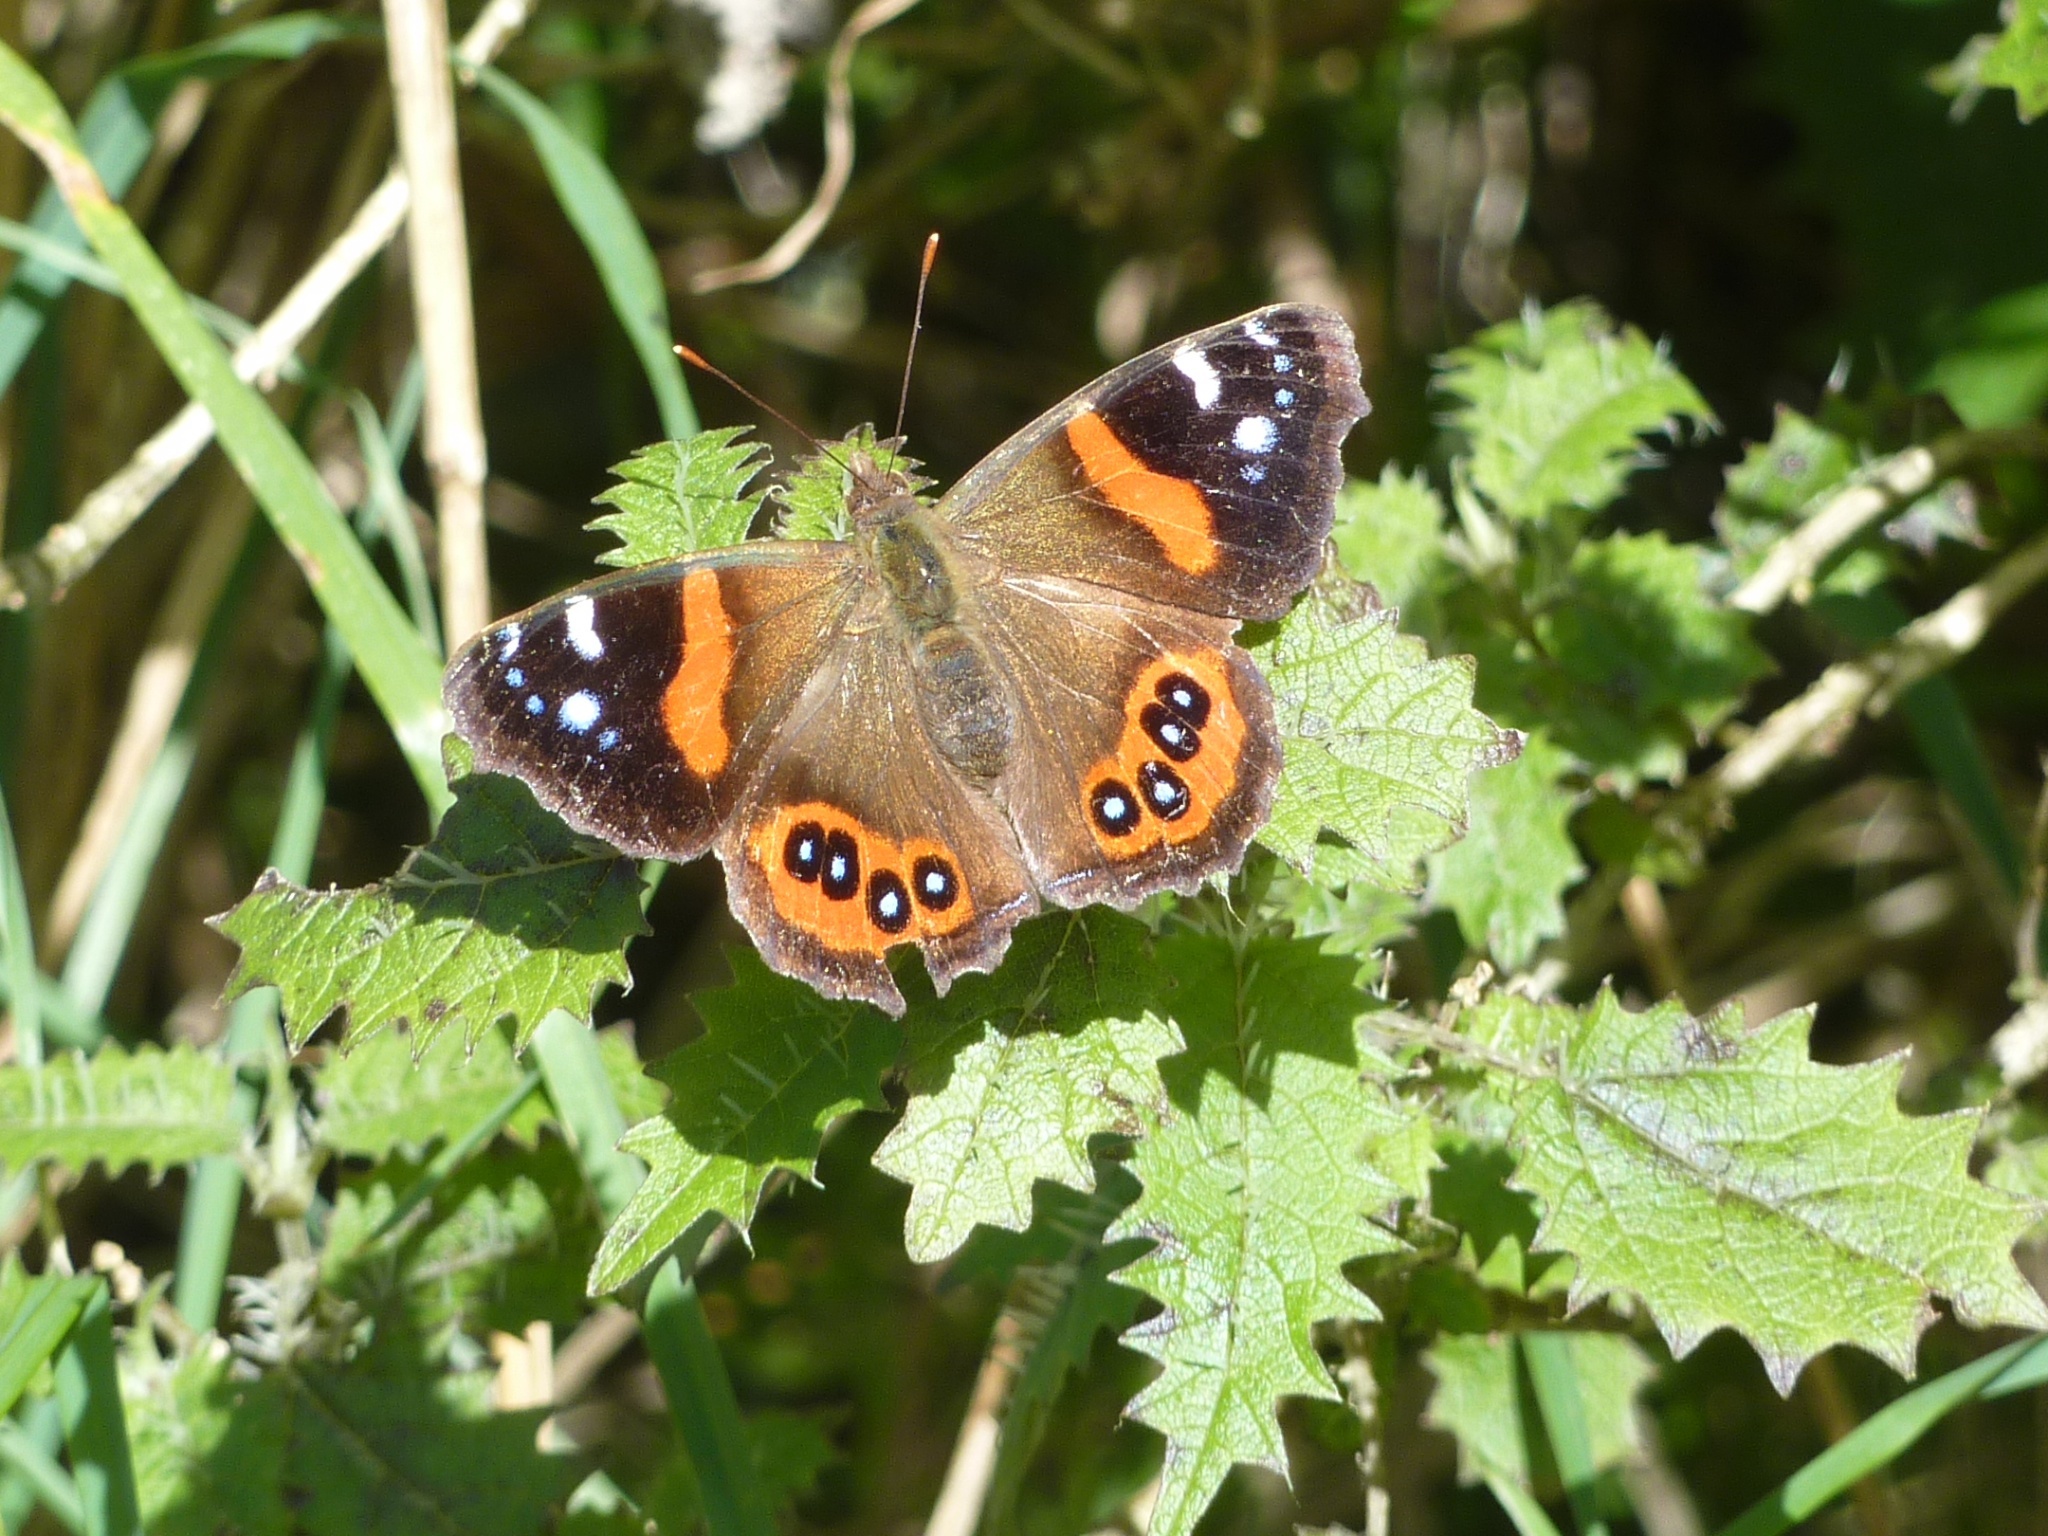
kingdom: Animalia
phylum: Arthropoda
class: Insecta
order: Lepidoptera
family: Nymphalidae
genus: Vanessa
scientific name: Vanessa gonerilla
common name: New zealand red admiral
